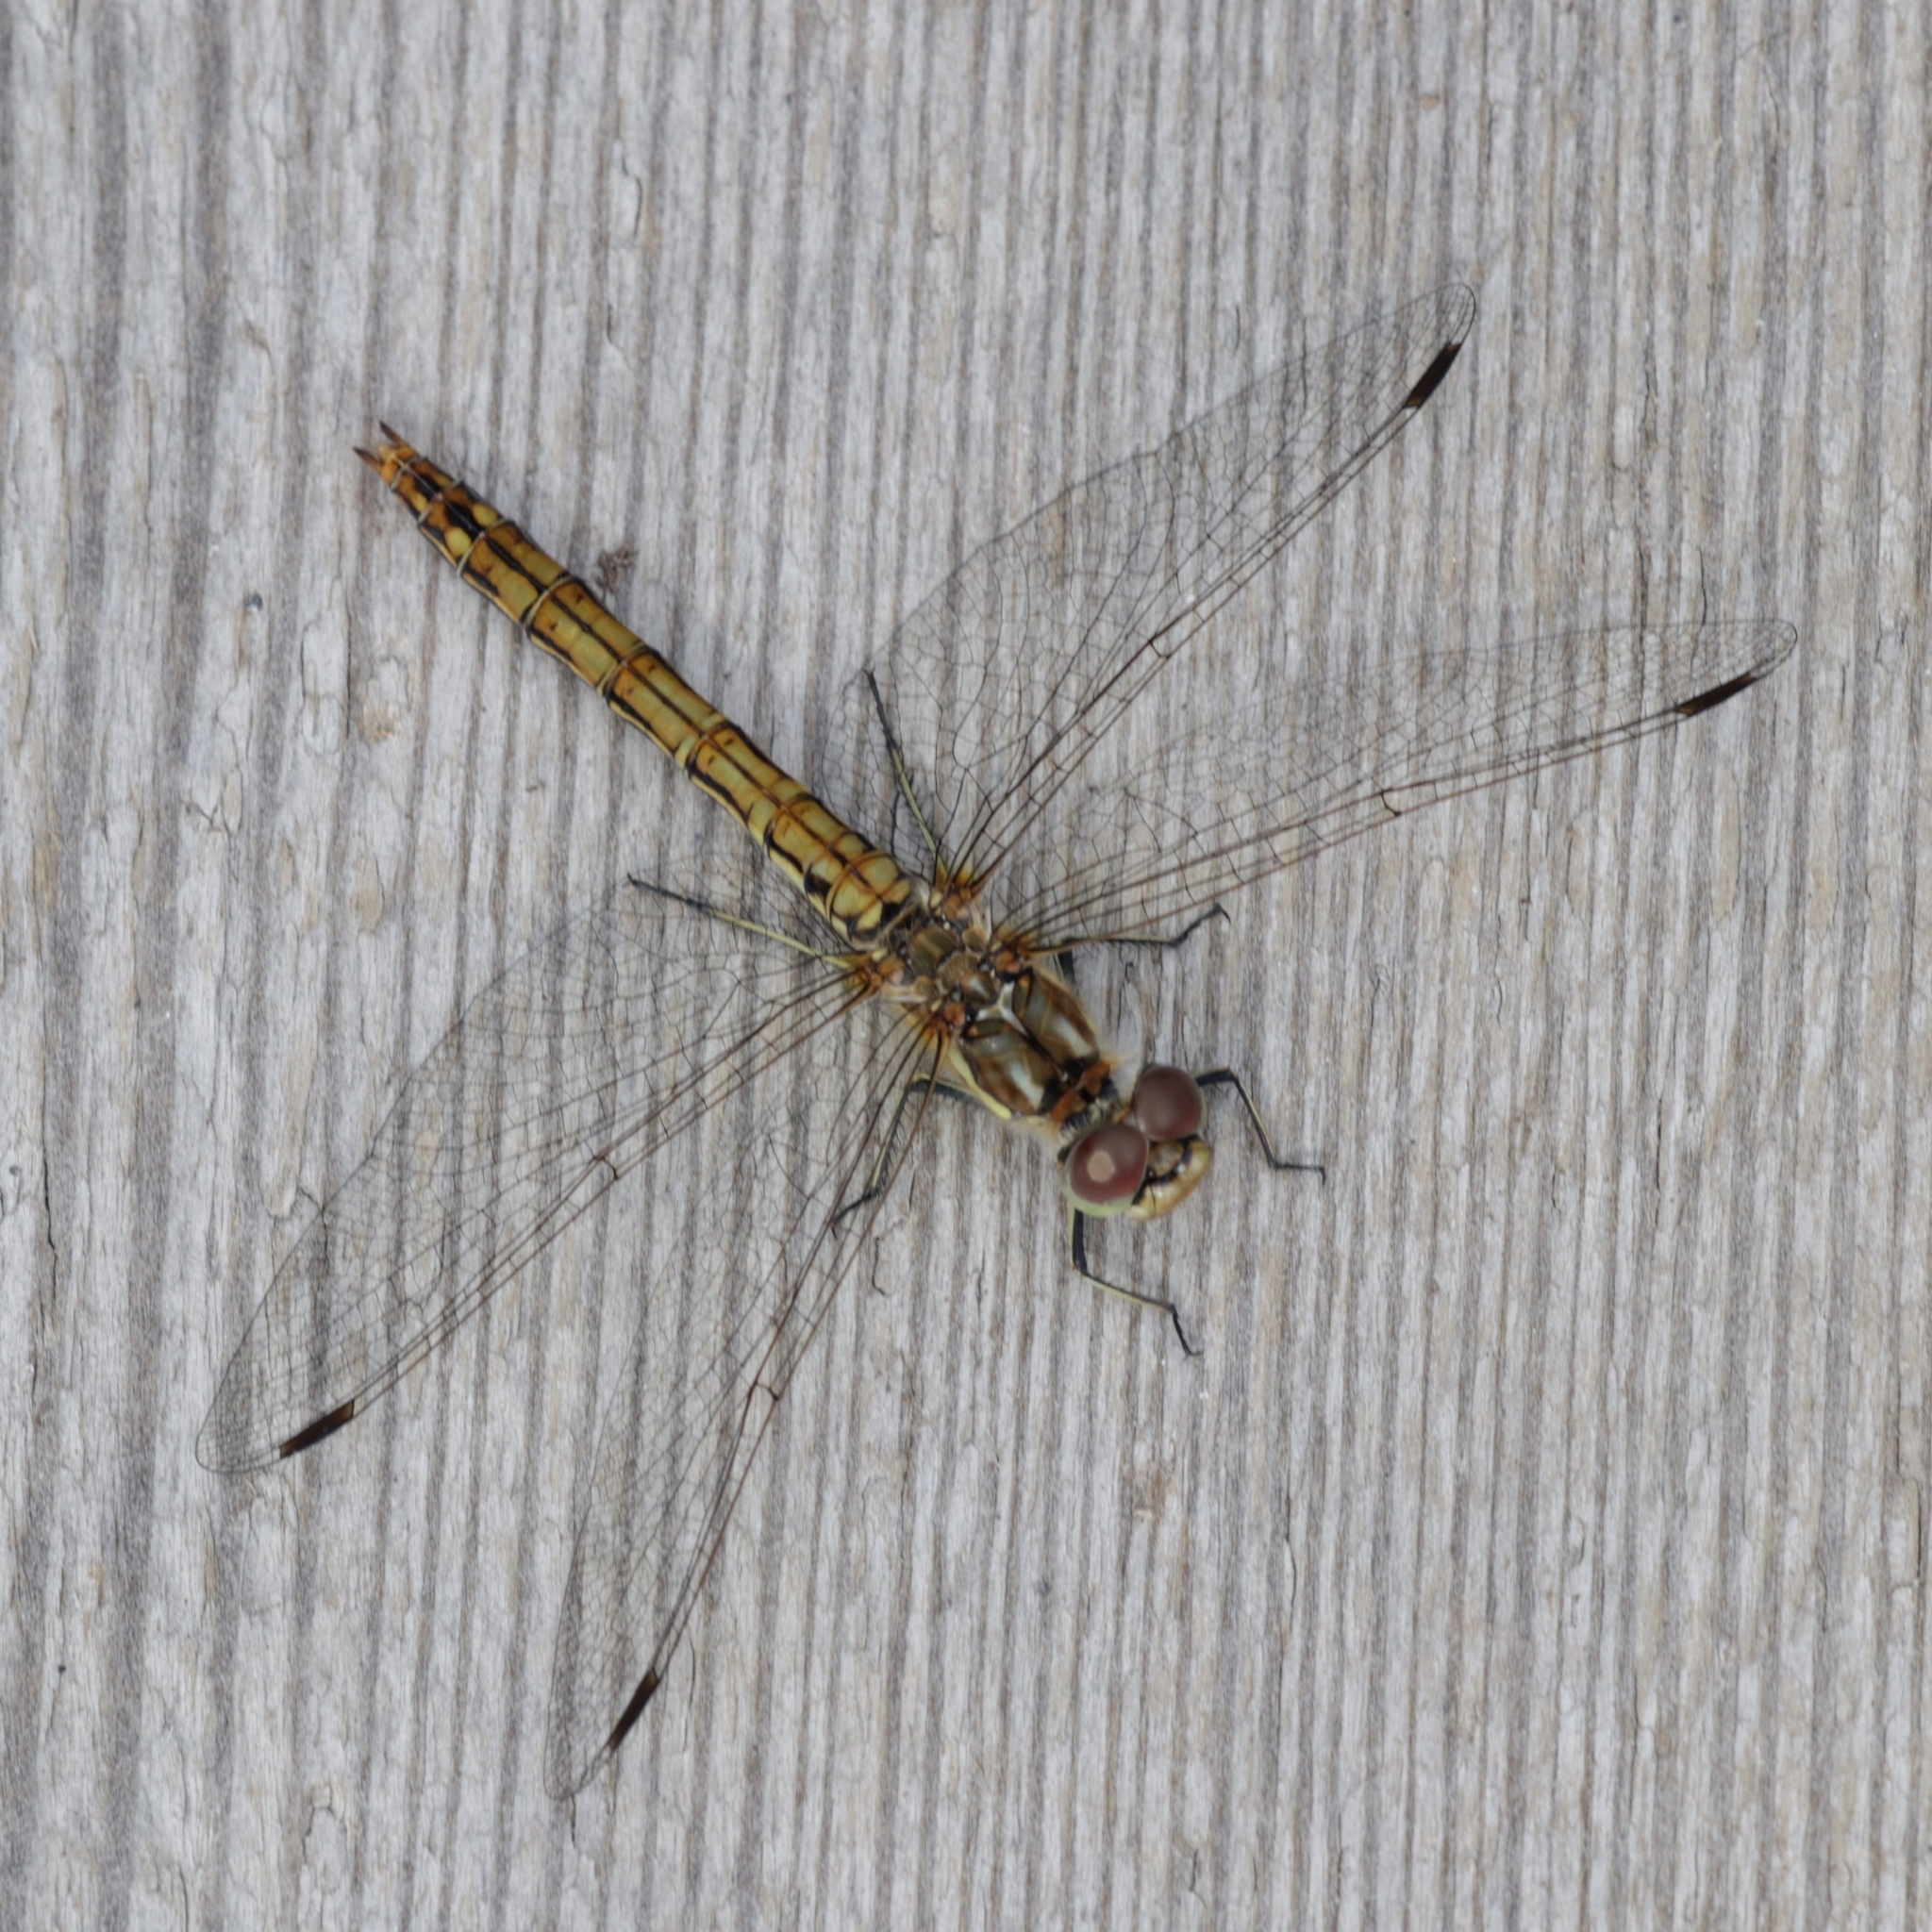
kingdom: Animalia
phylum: Arthropoda
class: Insecta
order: Odonata
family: Libellulidae
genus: Sympetrum
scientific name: Sympetrum vulgatum
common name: Vagrant darter
